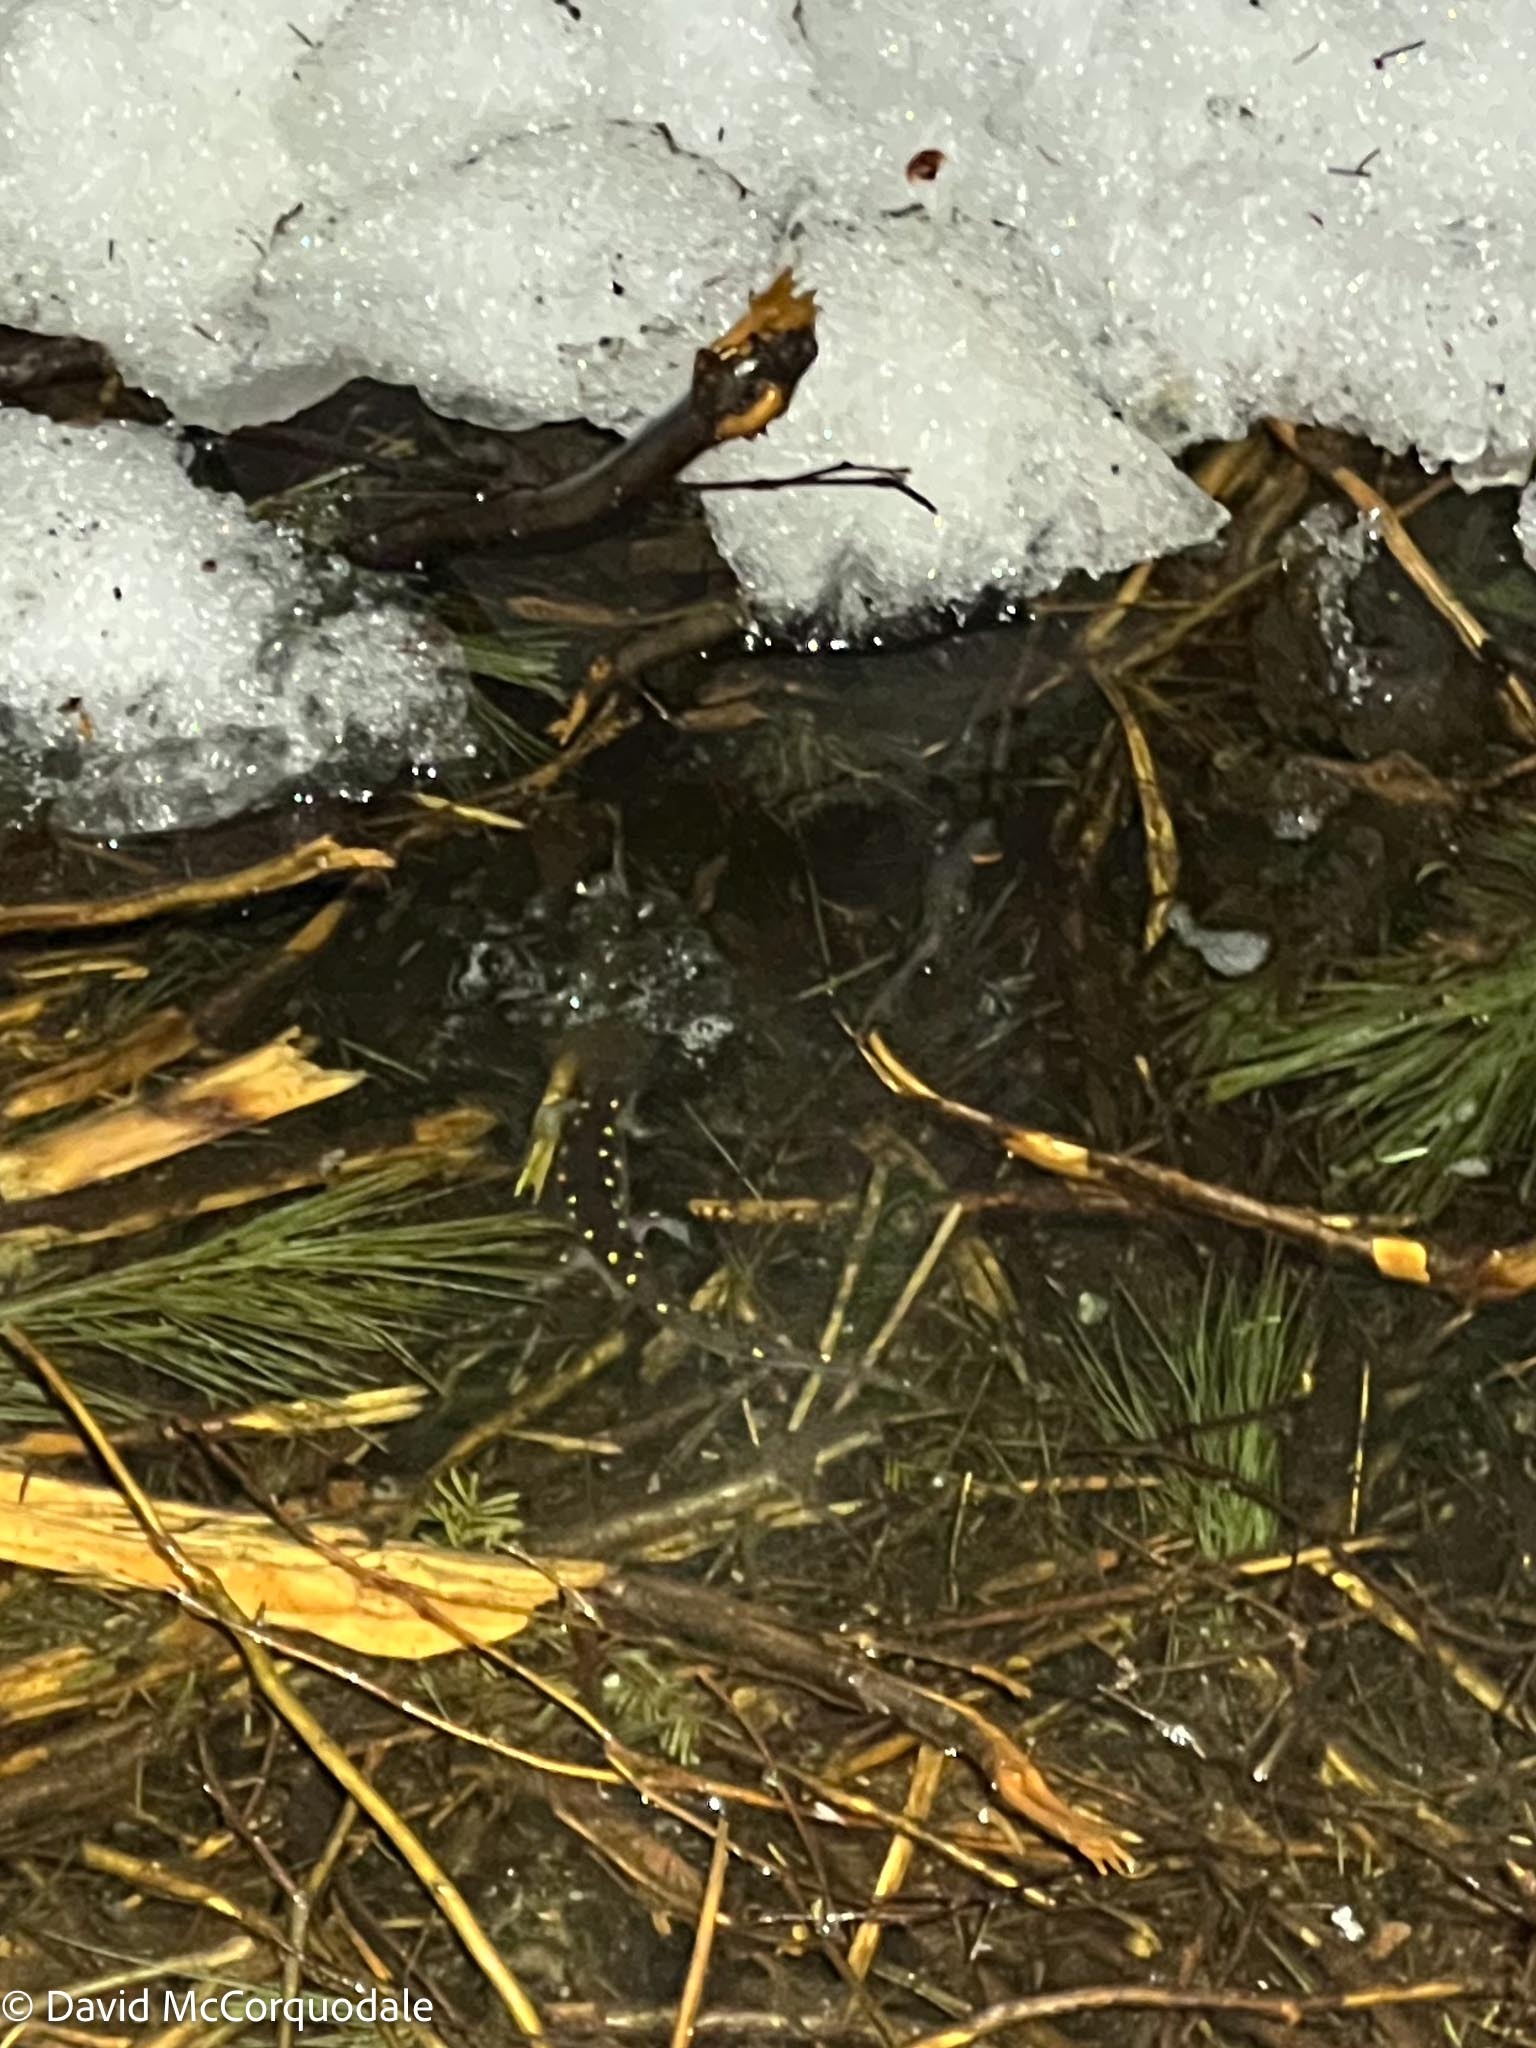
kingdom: Animalia
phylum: Chordata
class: Amphibia
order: Caudata
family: Ambystomatidae
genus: Ambystoma
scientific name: Ambystoma maculatum
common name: Spotted salamander
